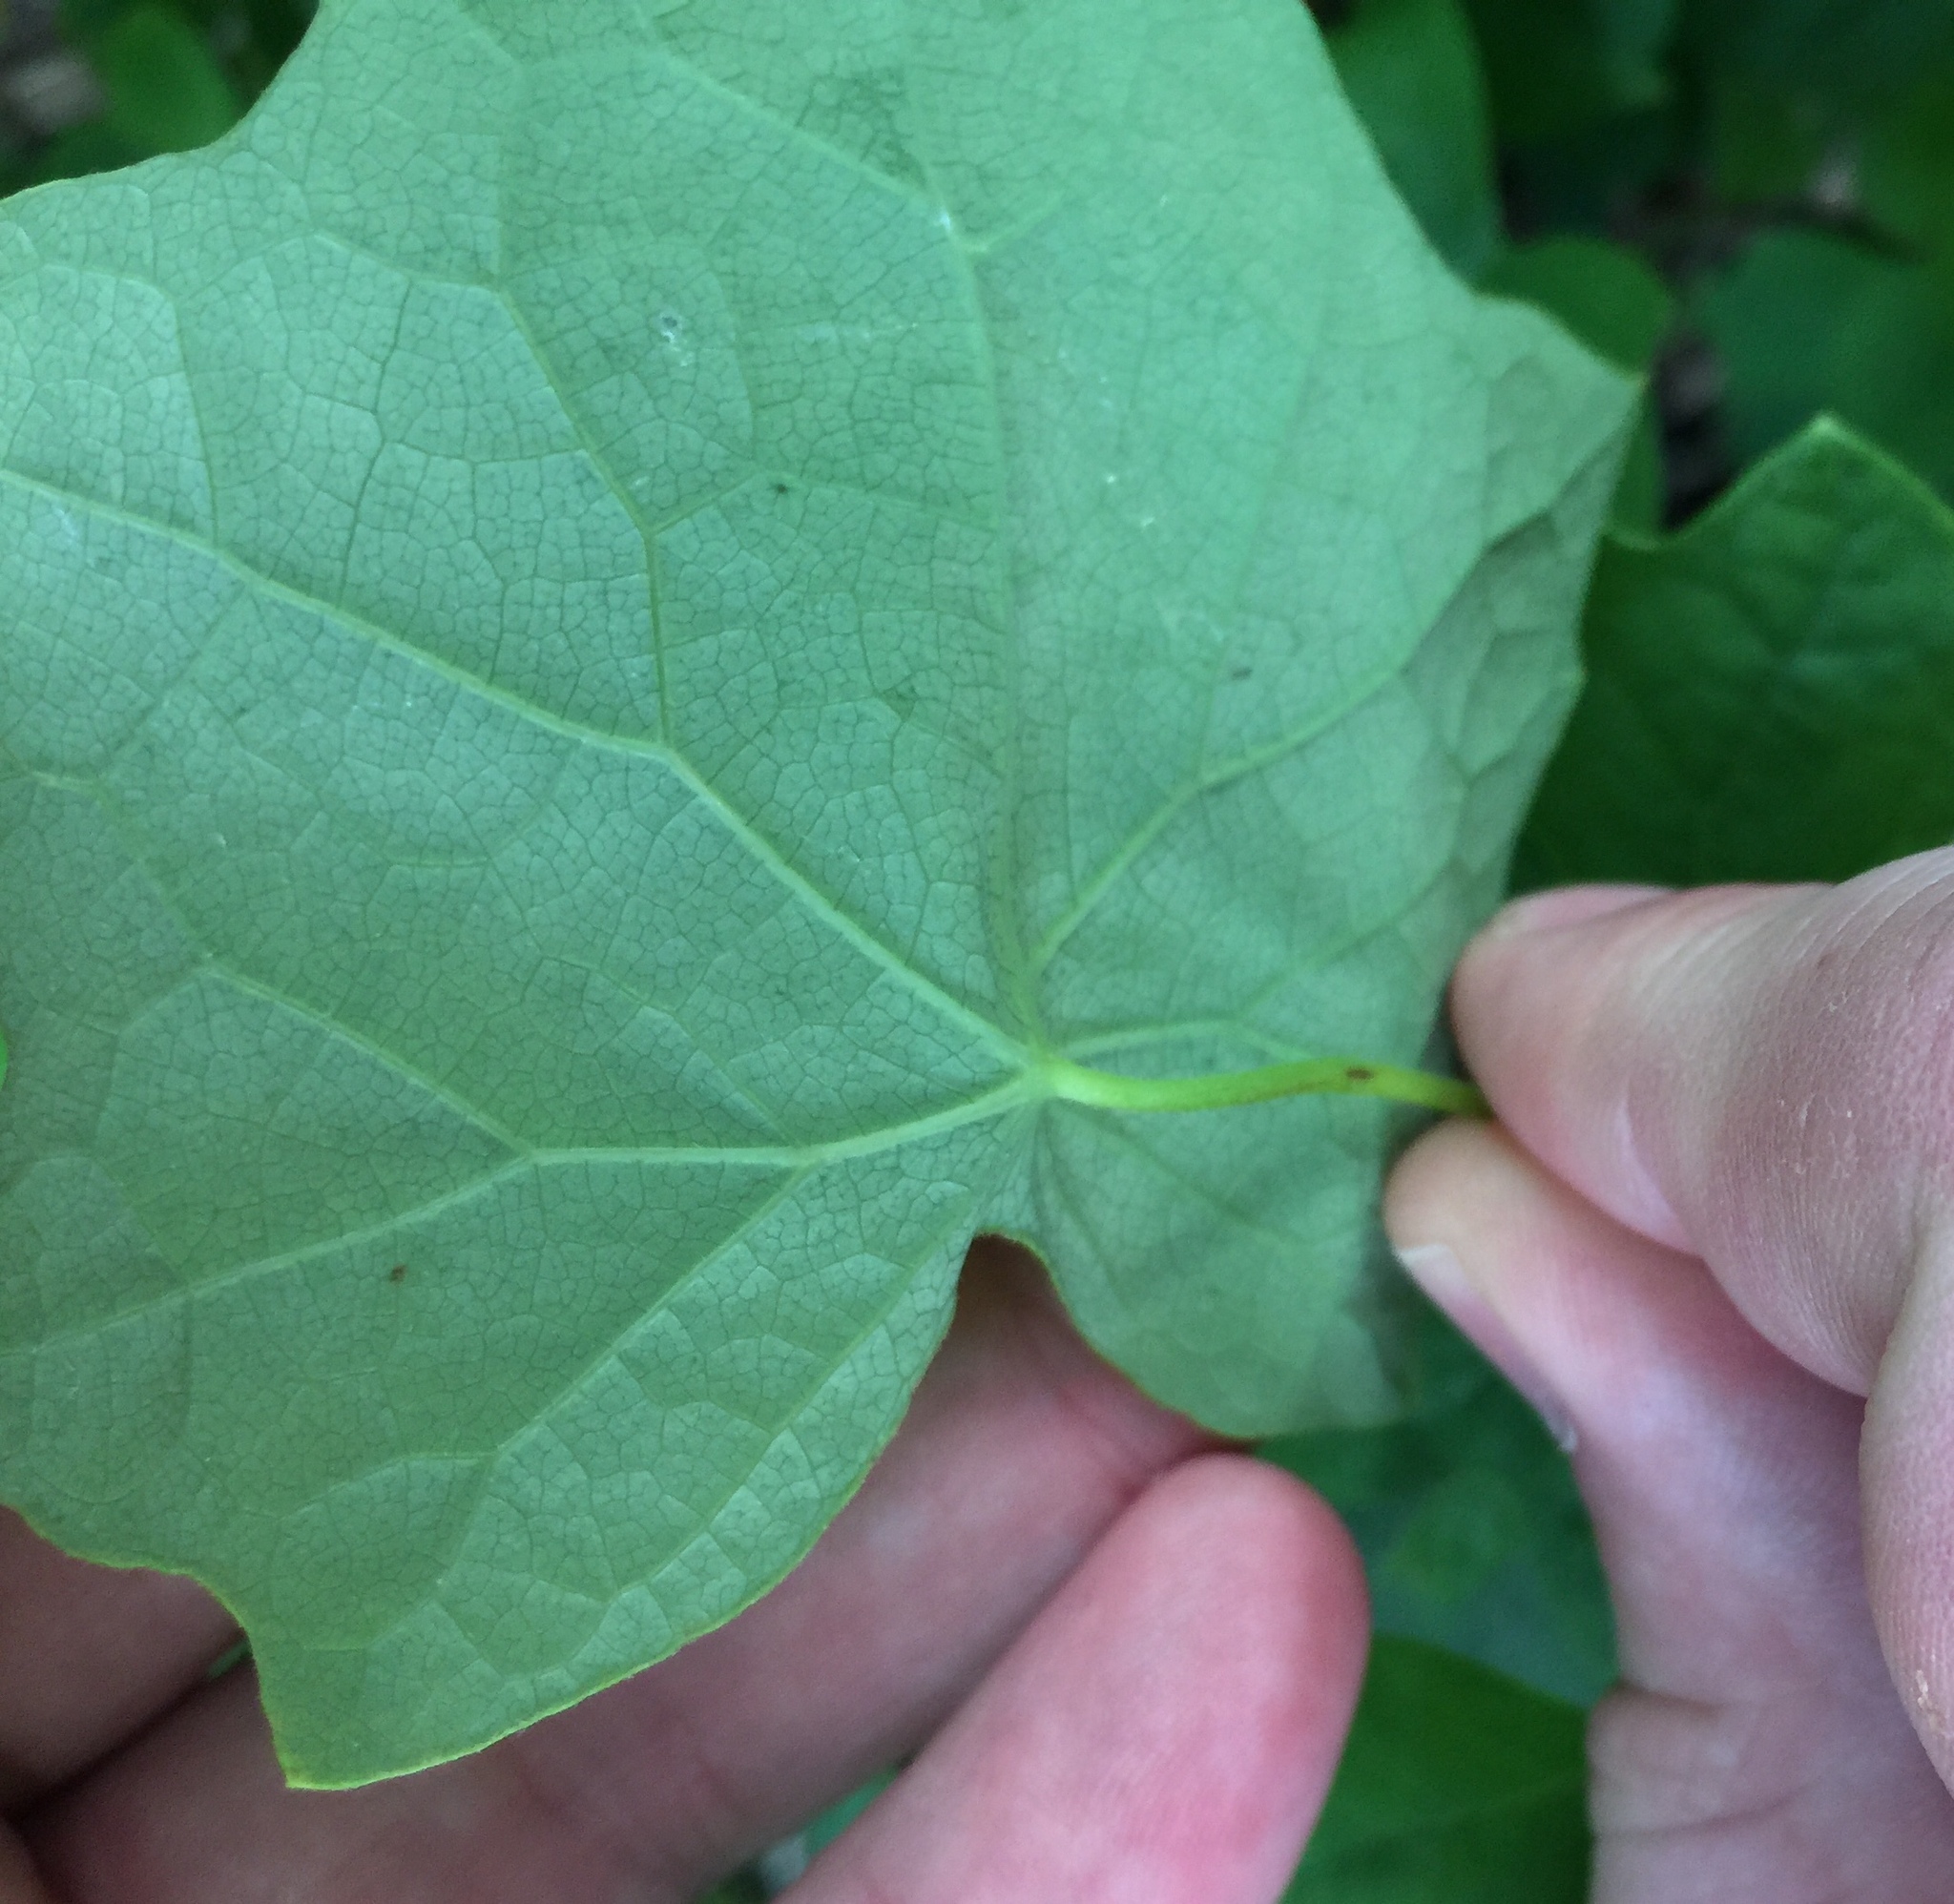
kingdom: Plantae
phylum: Tracheophyta
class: Magnoliopsida
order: Ranunculales
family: Menispermaceae
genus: Menispermum
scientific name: Menispermum canadense
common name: Moonseed
